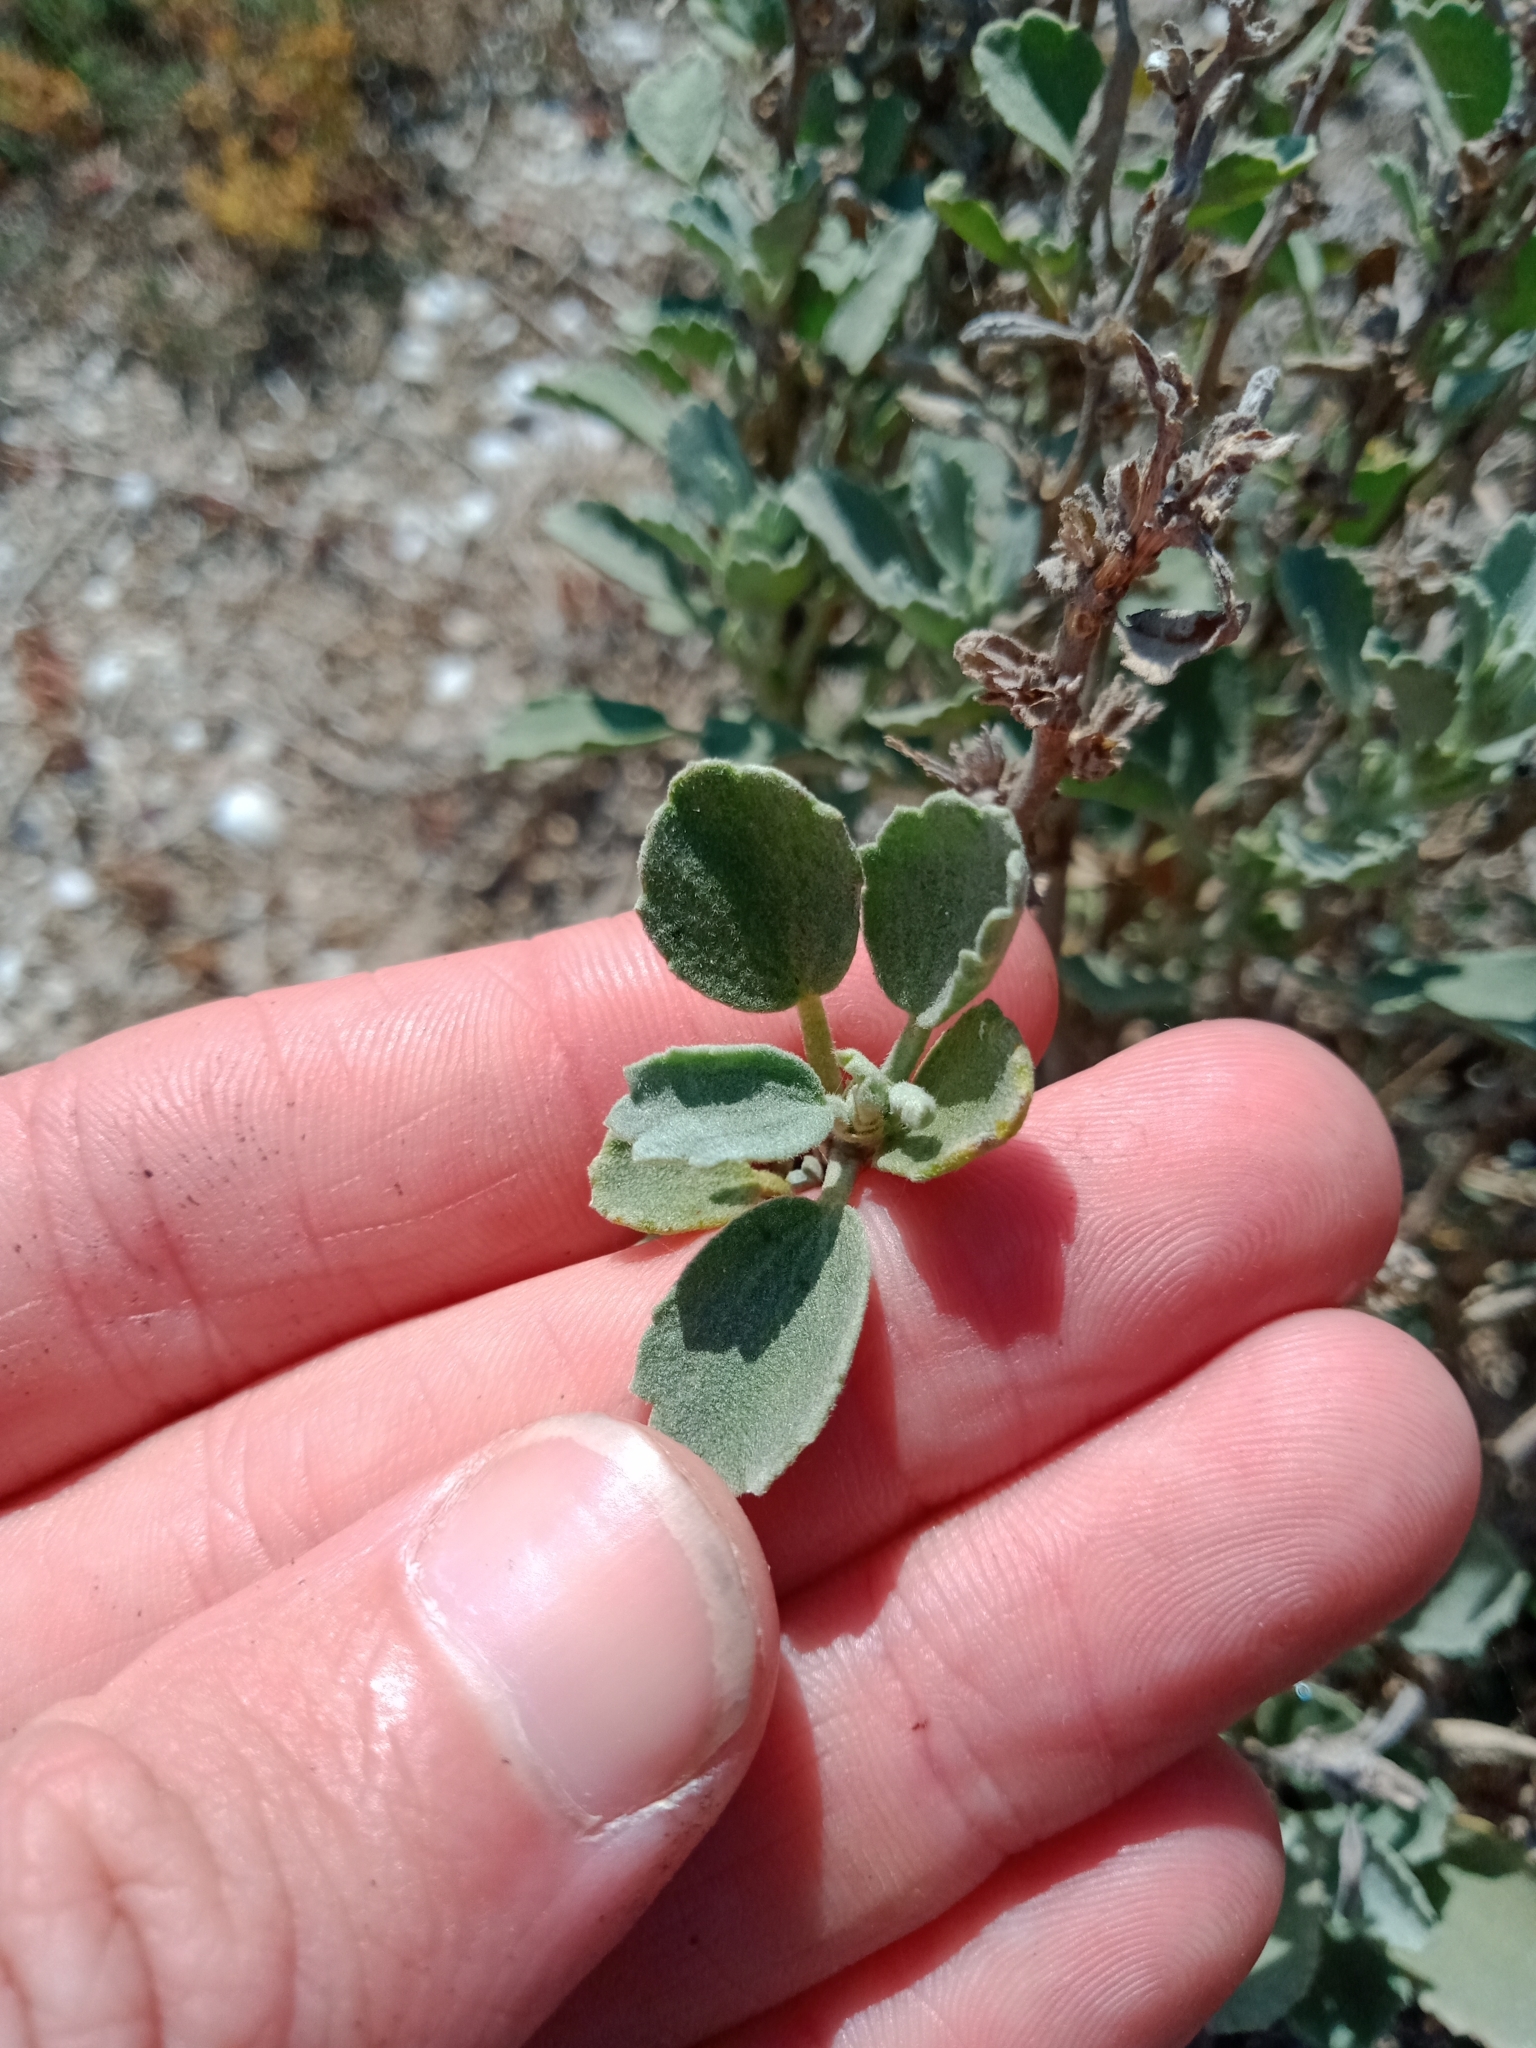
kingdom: Plantae
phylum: Tracheophyta
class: Magnoliopsida
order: Malvales
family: Malvaceae
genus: Lawrencia
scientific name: Lawrencia glomerata
